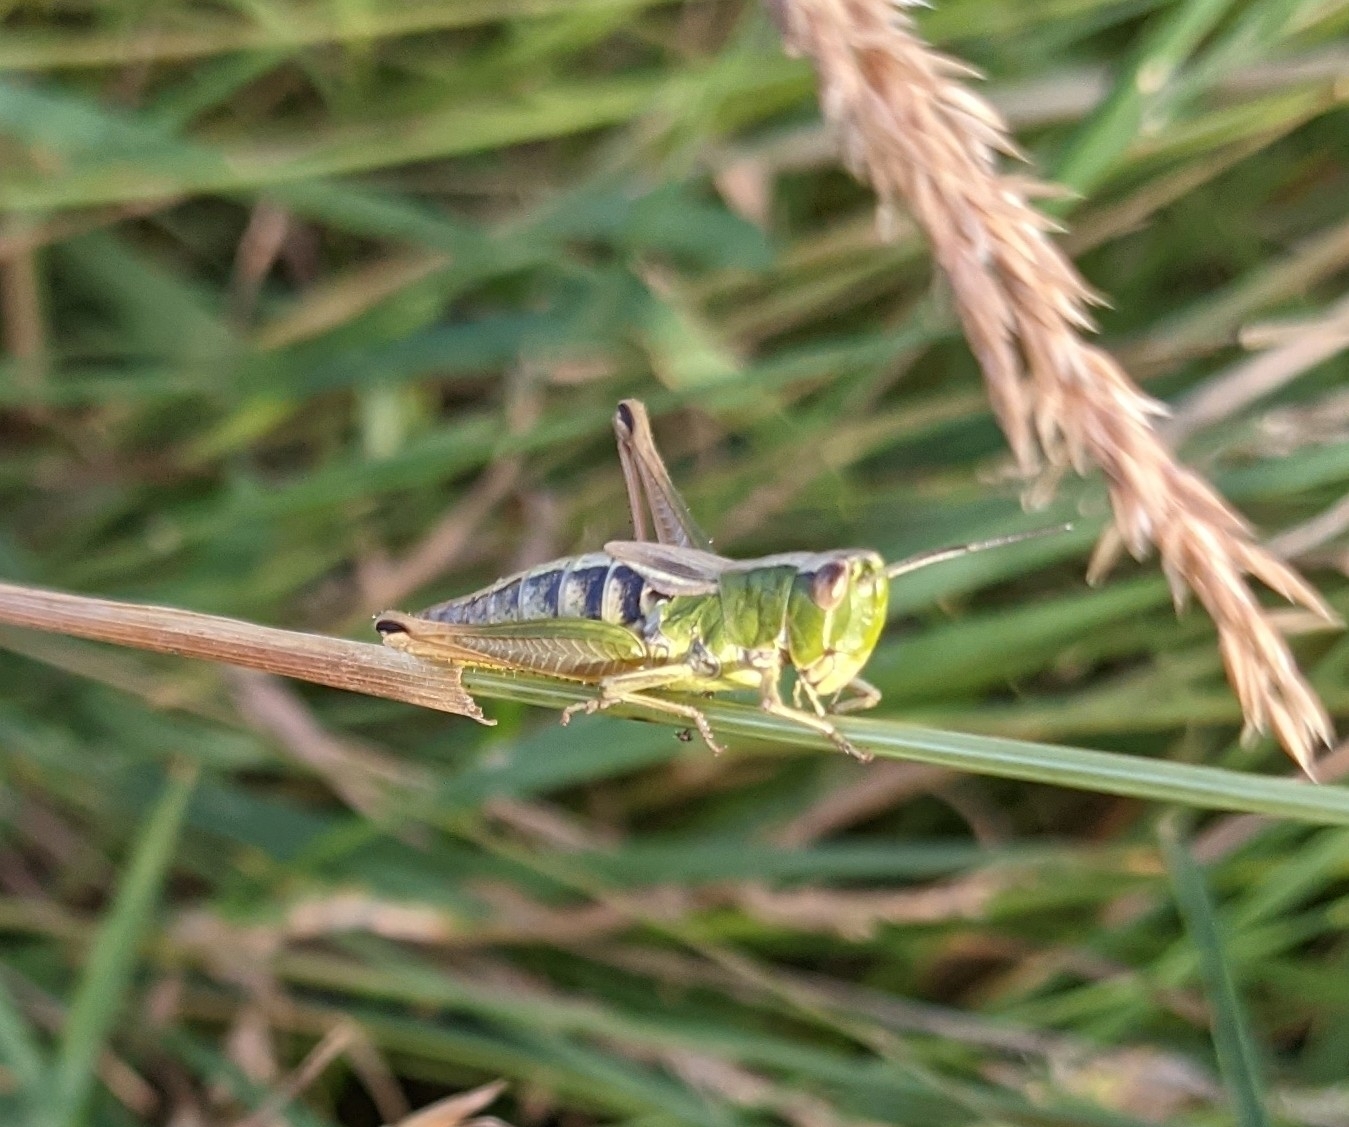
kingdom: Animalia
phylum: Arthropoda
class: Insecta
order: Orthoptera
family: Acrididae
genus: Pseudochorthippus
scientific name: Pseudochorthippus parallelus
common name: Meadow grasshopper
